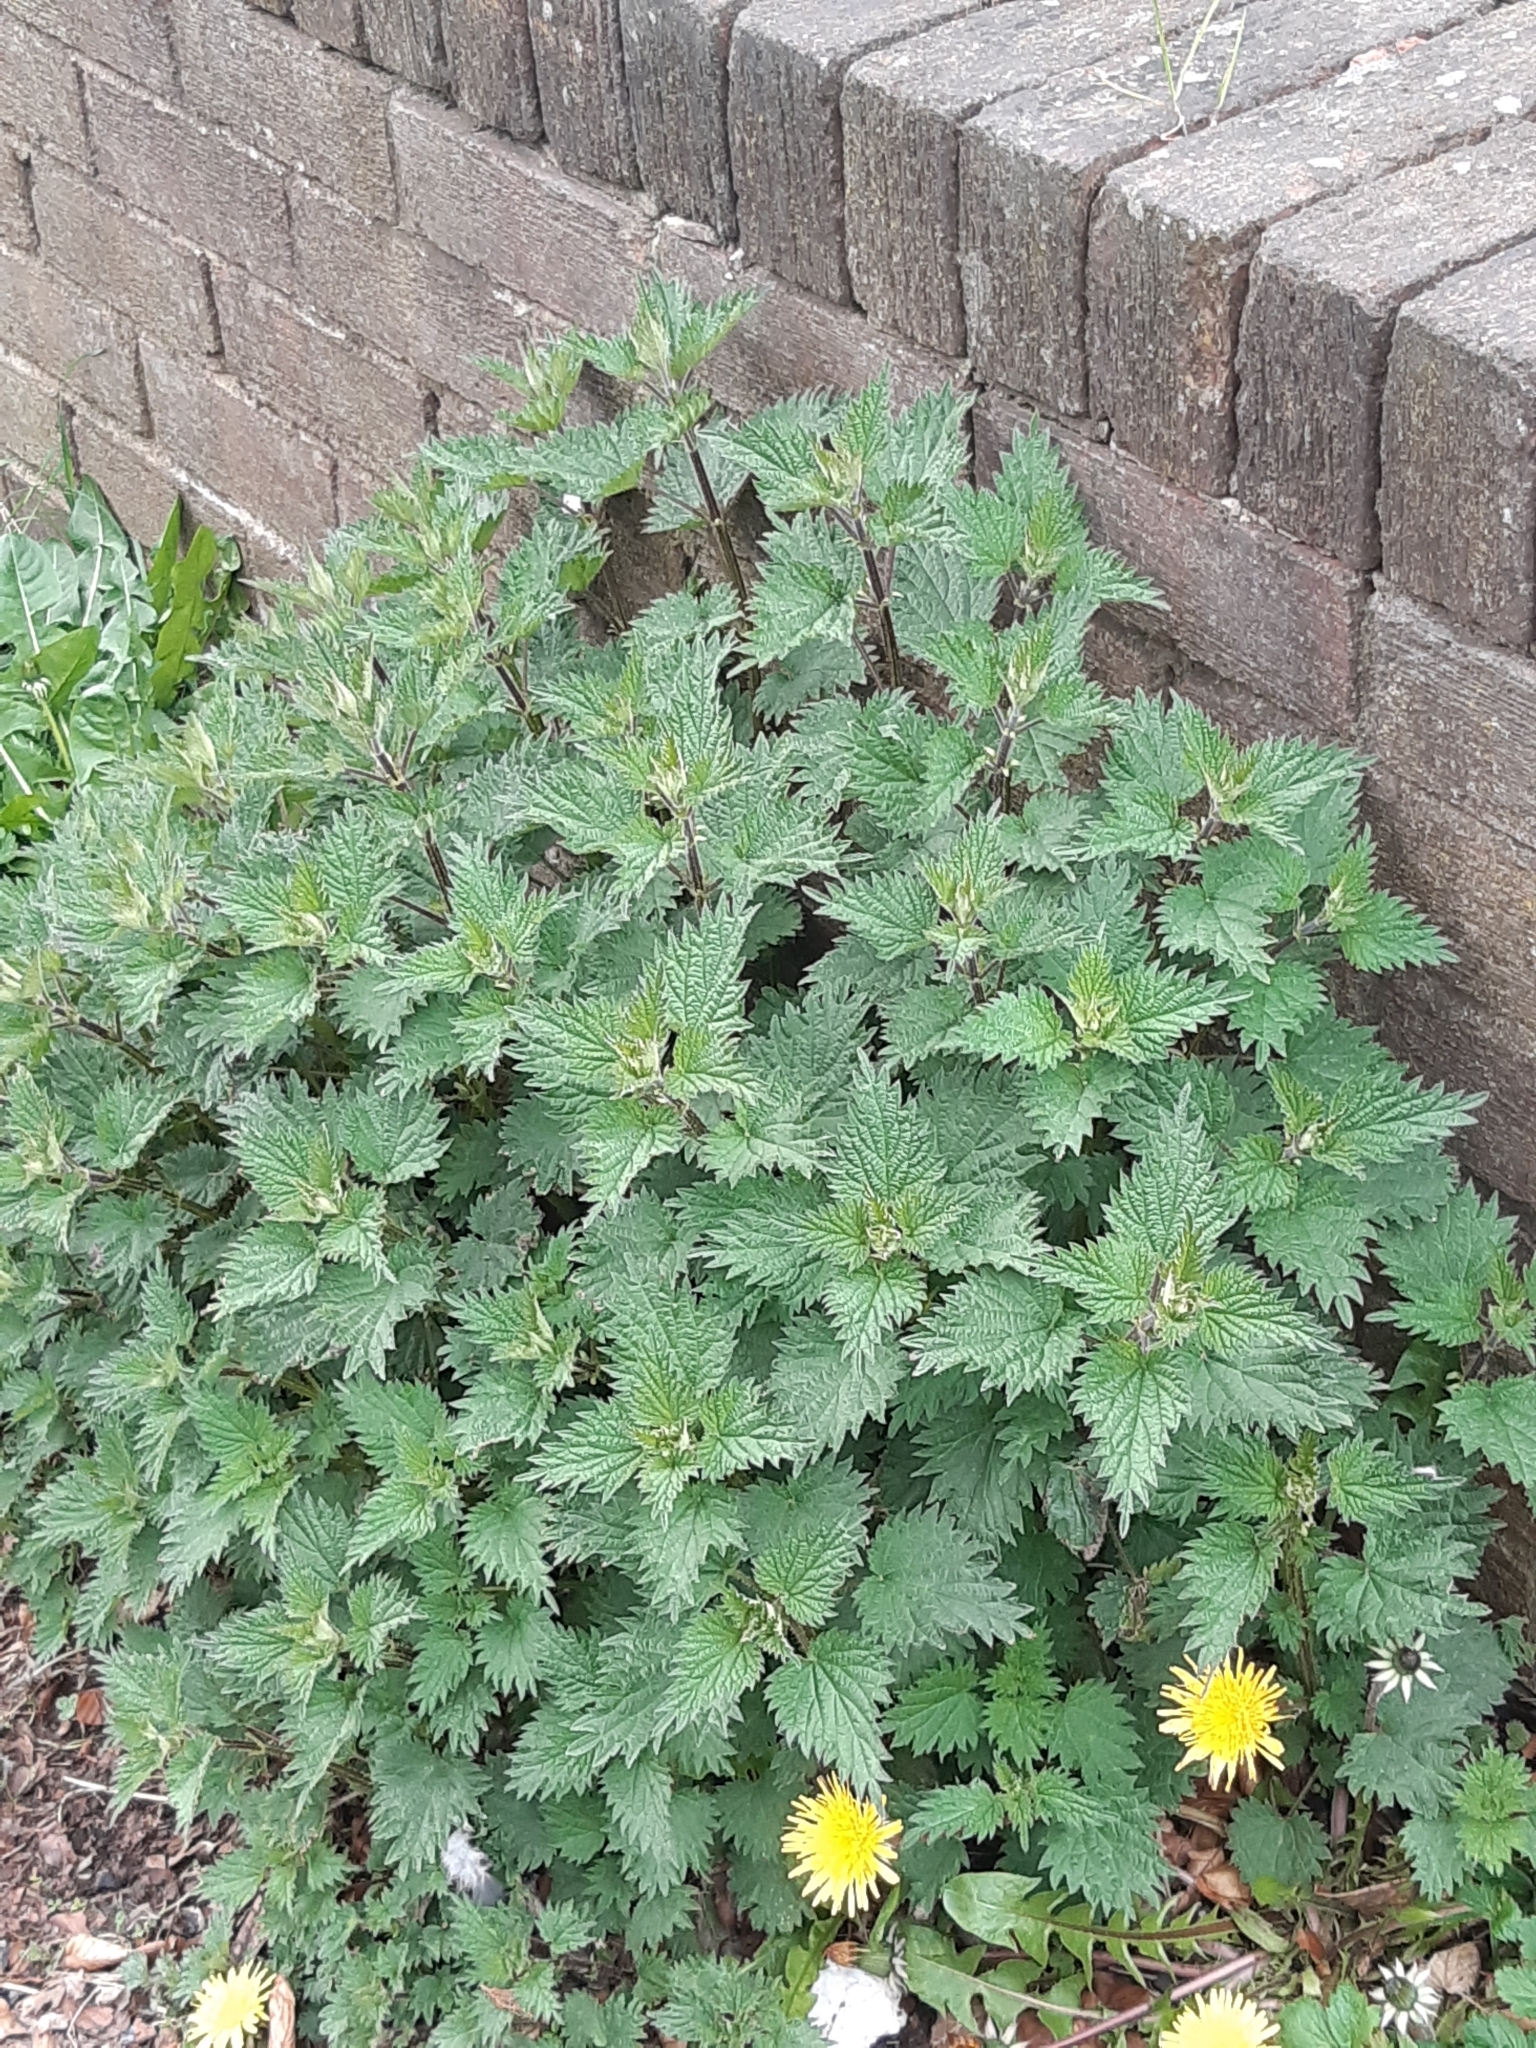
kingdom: Plantae
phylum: Tracheophyta
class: Magnoliopsida
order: Rosales
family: Urticaceae
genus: Urtica
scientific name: Urtica dioica
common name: Common nettle
